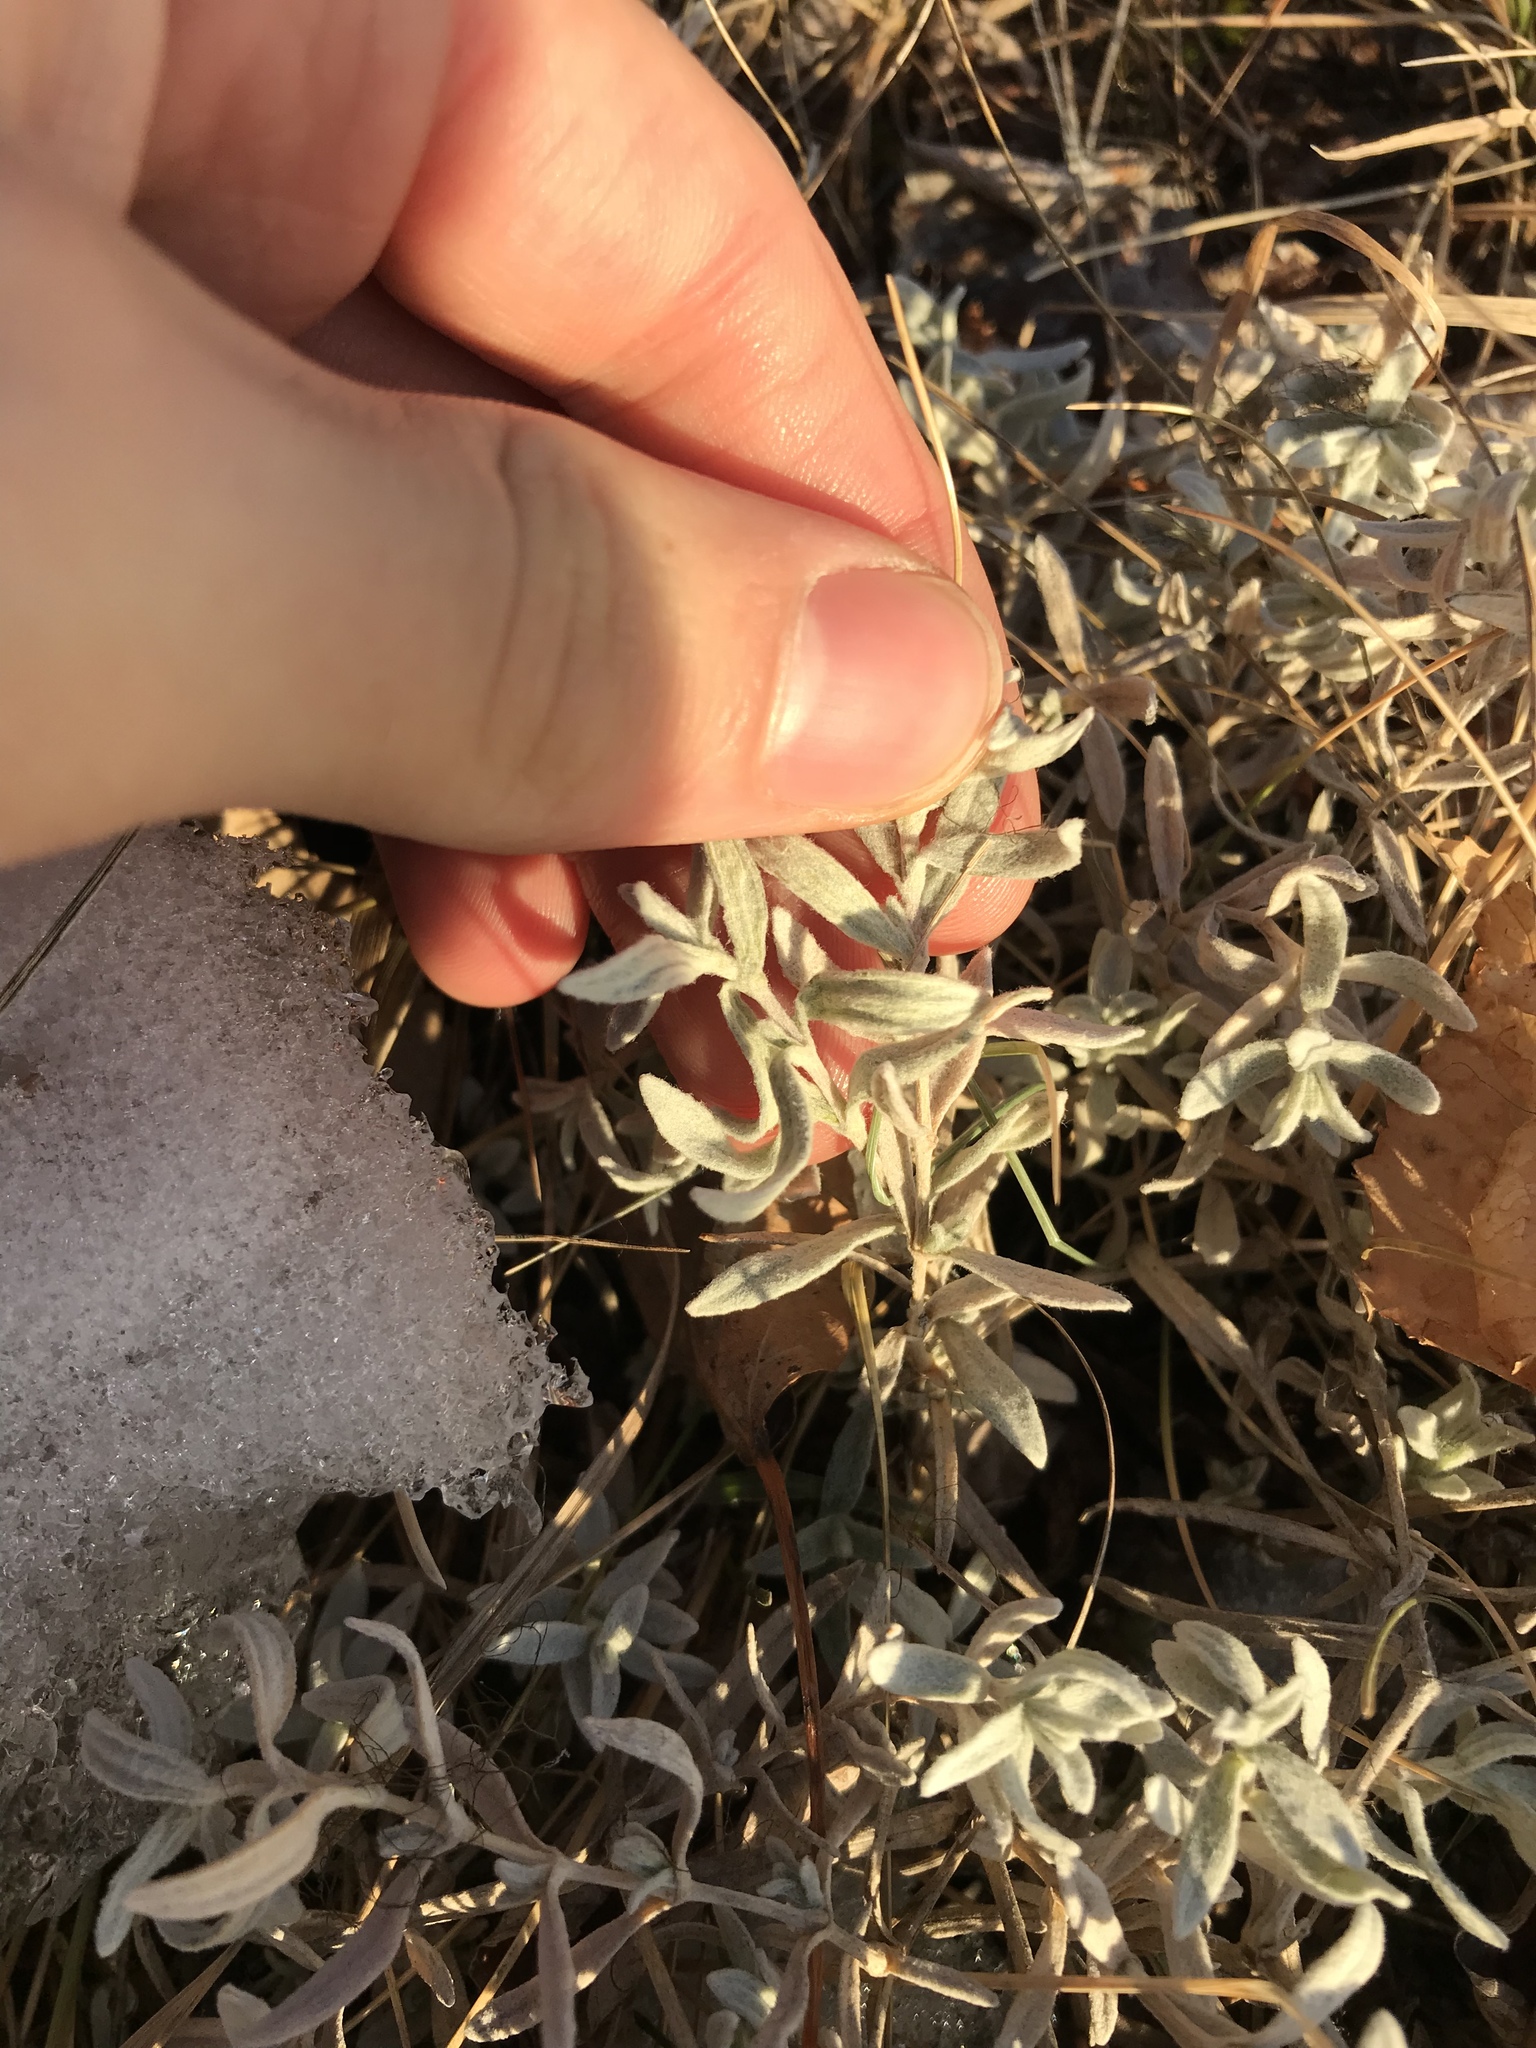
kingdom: Plantae
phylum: Tracheophyta
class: Magnoliopsida
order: Caryophyllales
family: Caryophyllaceae
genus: Cerastium
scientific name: Cerastium tomentosum
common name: Snow-in-summer
